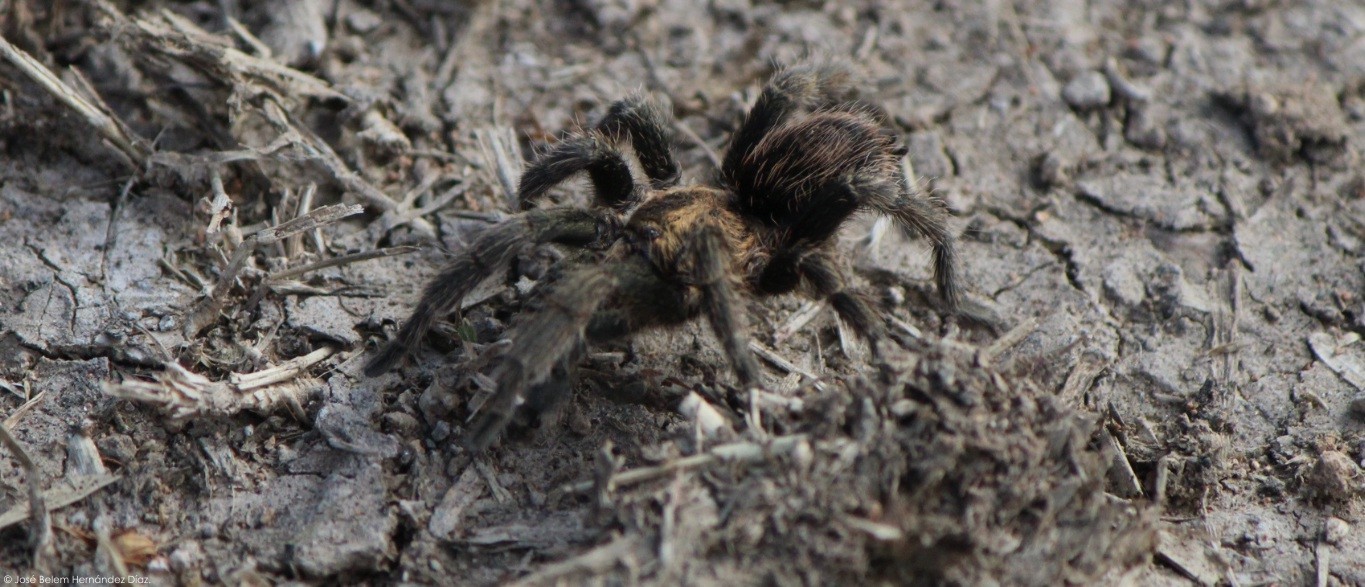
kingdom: Animalia
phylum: Arthropoda
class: Arachnida
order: Araneae
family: Theraphosidae
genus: Bonnetina
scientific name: Bonnetina aviae
